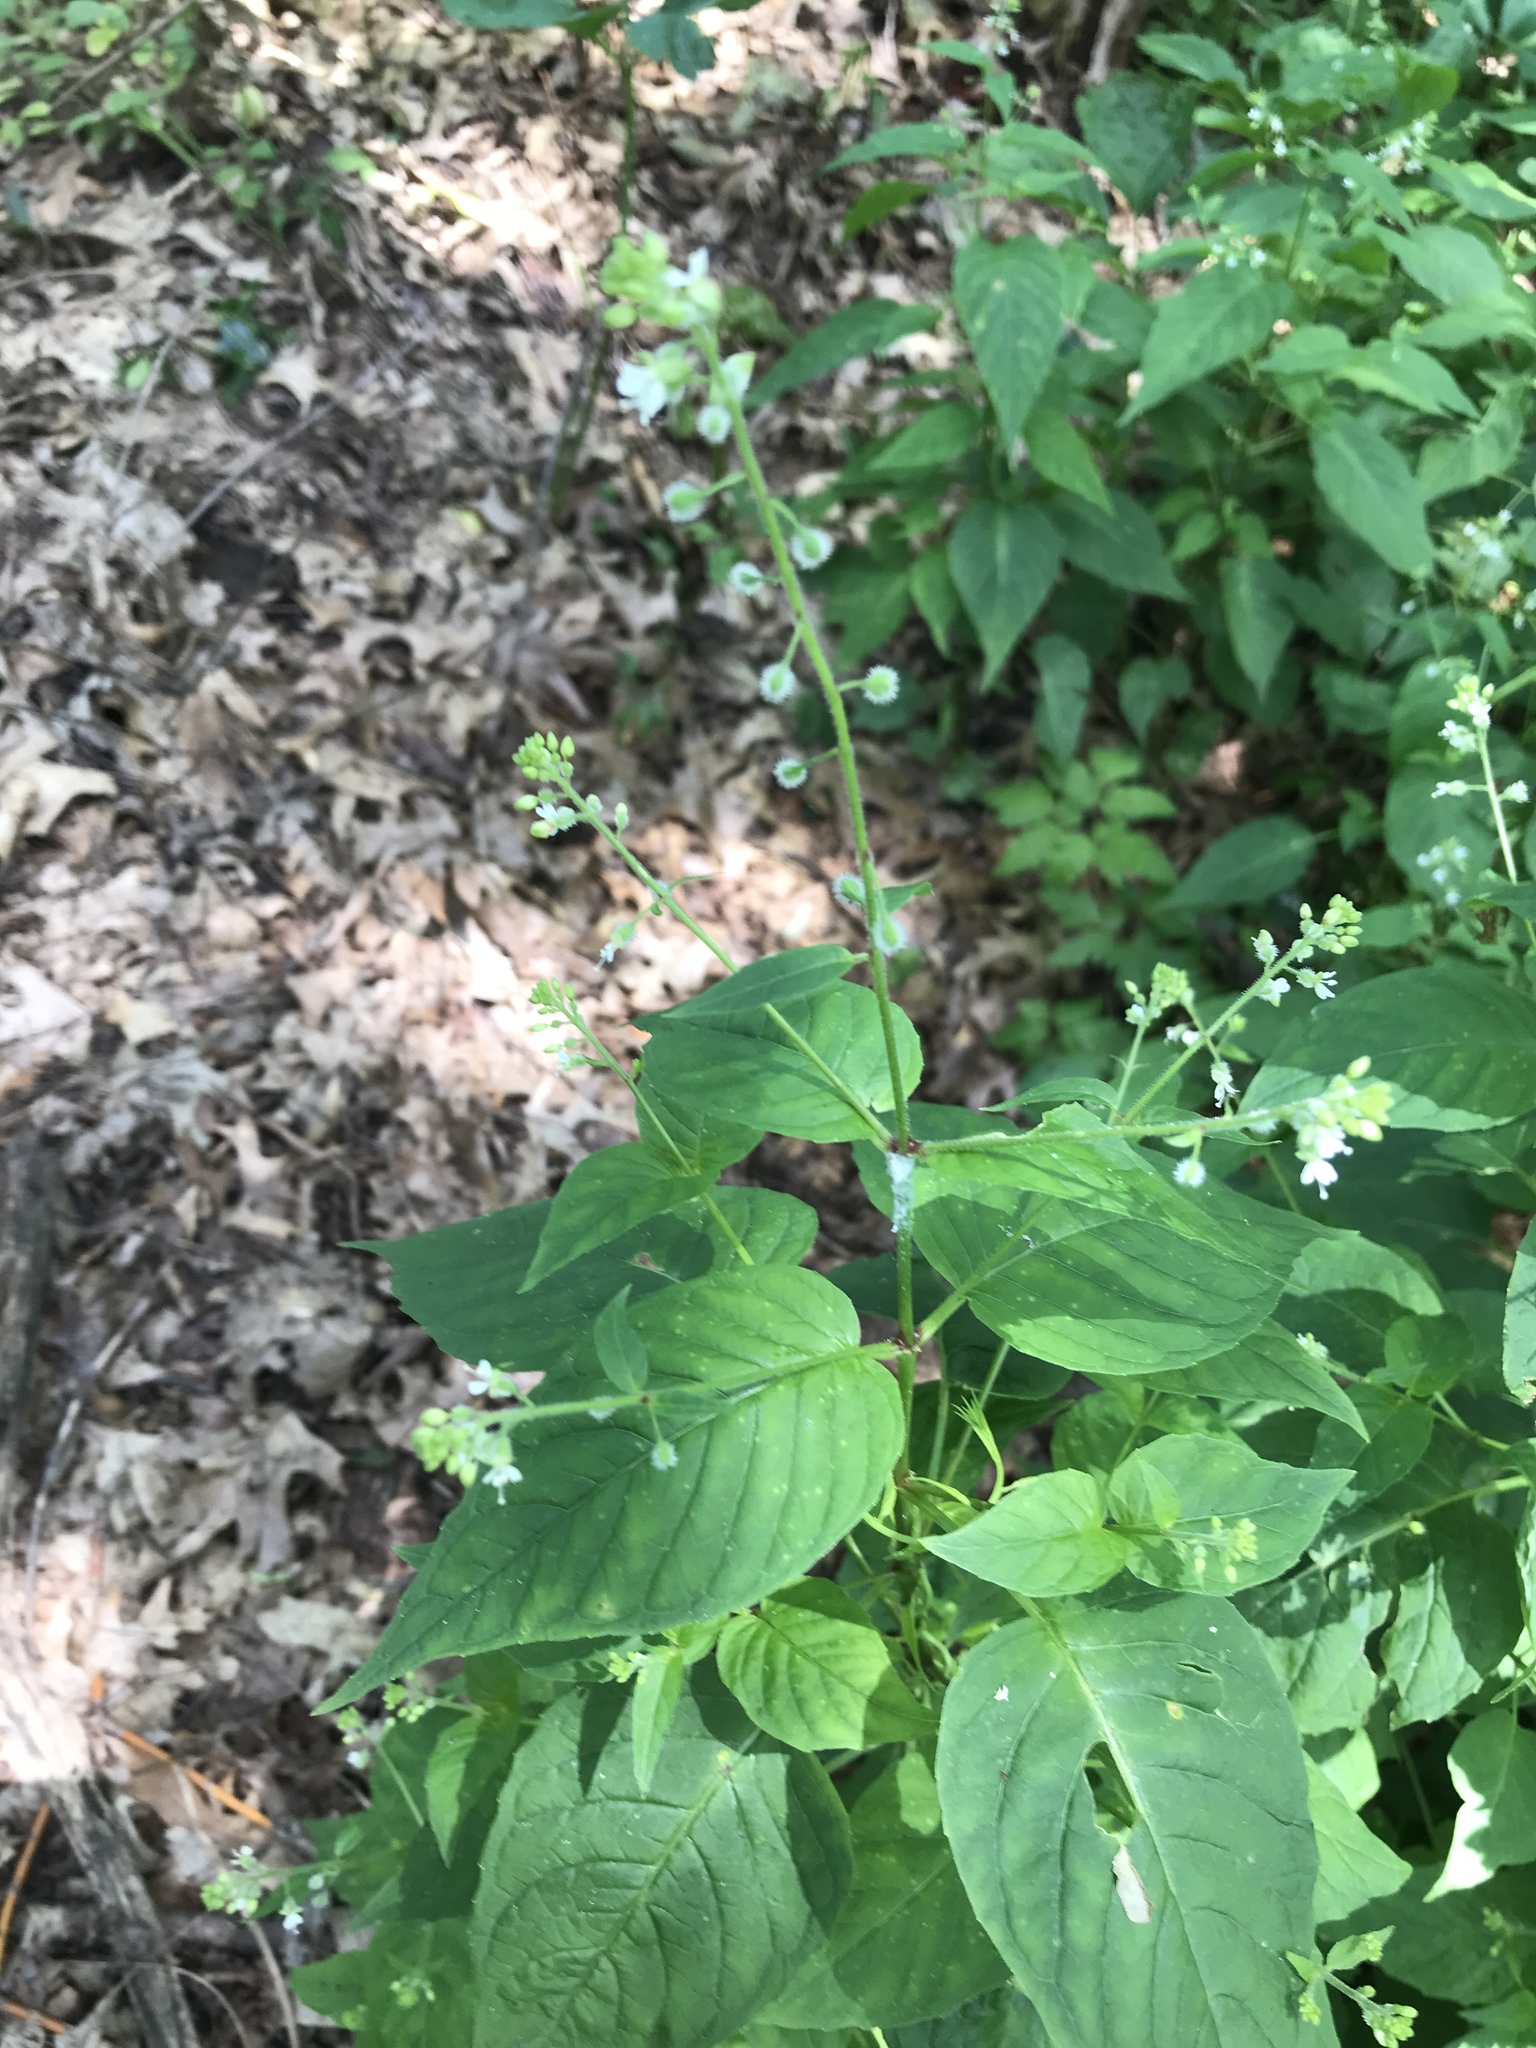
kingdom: Plantae
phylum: Tracheophyta
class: Magnoliopsida
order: Myrtales
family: Onagraceae
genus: Circaea
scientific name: Circaea canadensis
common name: Broad-leaved enchanter's nightshade
